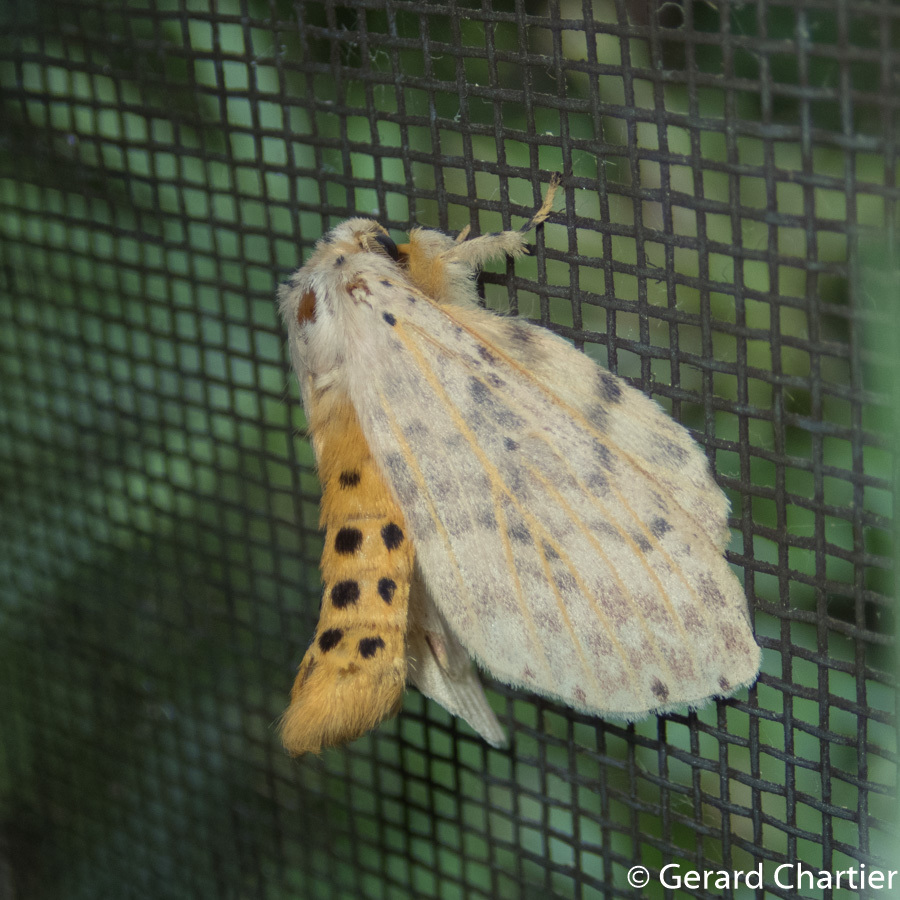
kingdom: Animalia
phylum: Arthropoda
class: Insecta
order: Lepidoptera
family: Notodontidae
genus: Cerasana
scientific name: Cerasana
